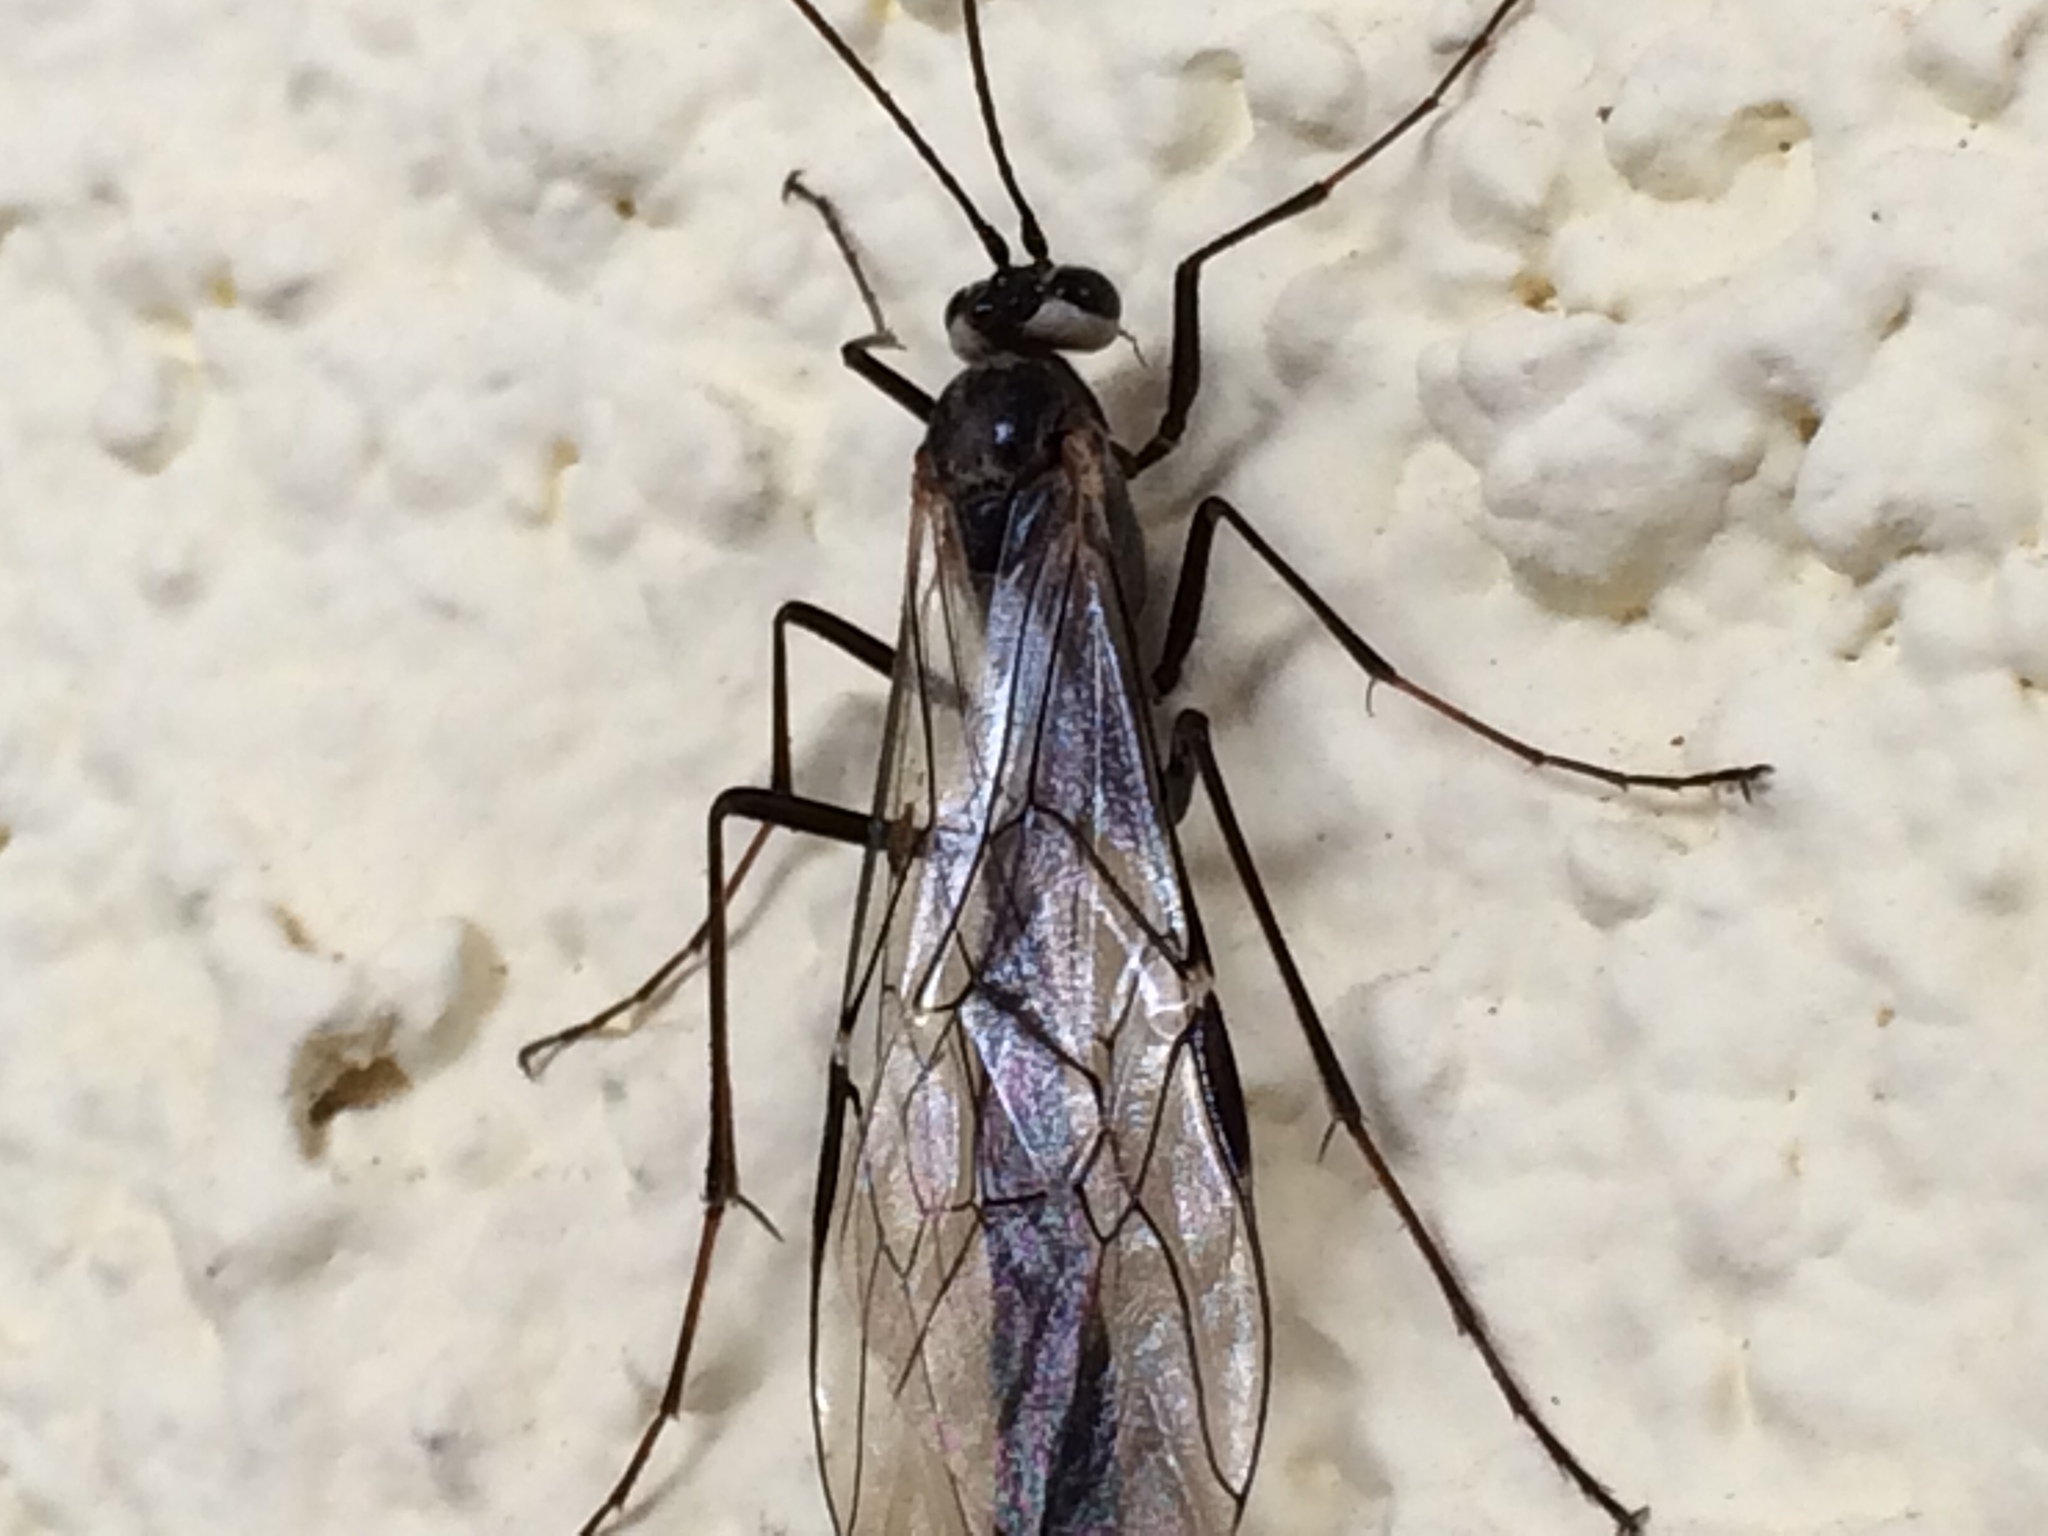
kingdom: Animalia
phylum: Arthropoda
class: Insecta
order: Hymenoptera
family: Ichneumonidae
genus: Eremotylus
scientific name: Eremotylus
